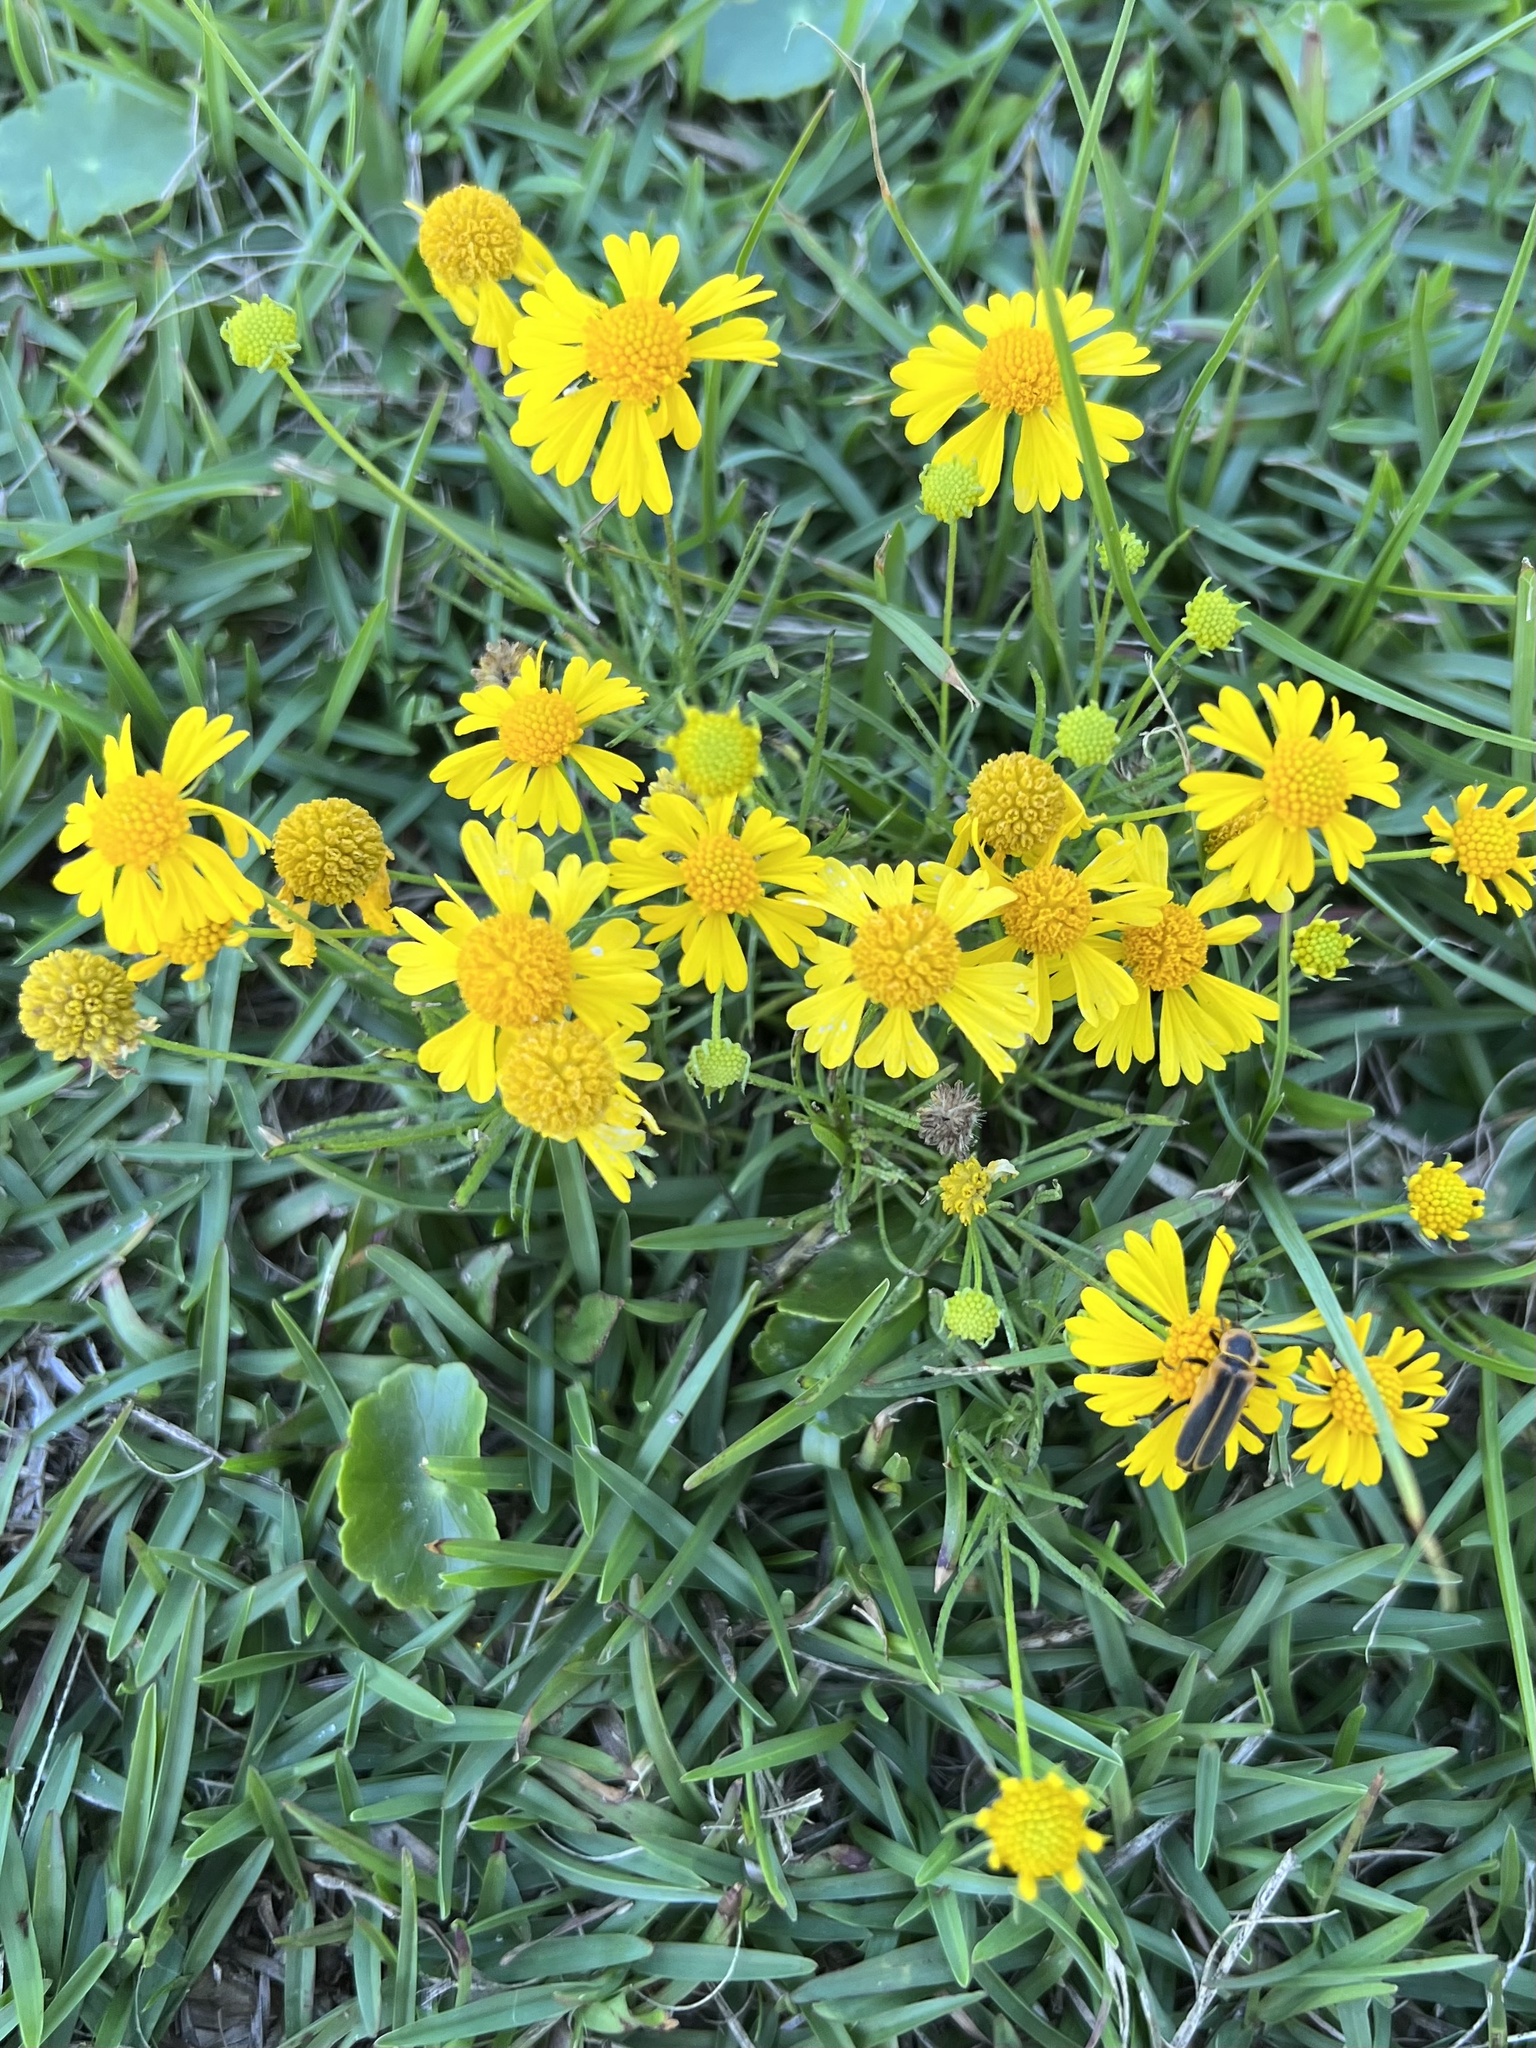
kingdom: Plantae
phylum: Tracheophyta
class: Magnoliopsida
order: Asterales
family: Asteraceae
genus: Helenium
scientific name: Helenium amarum
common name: Bitter sneezeweed
